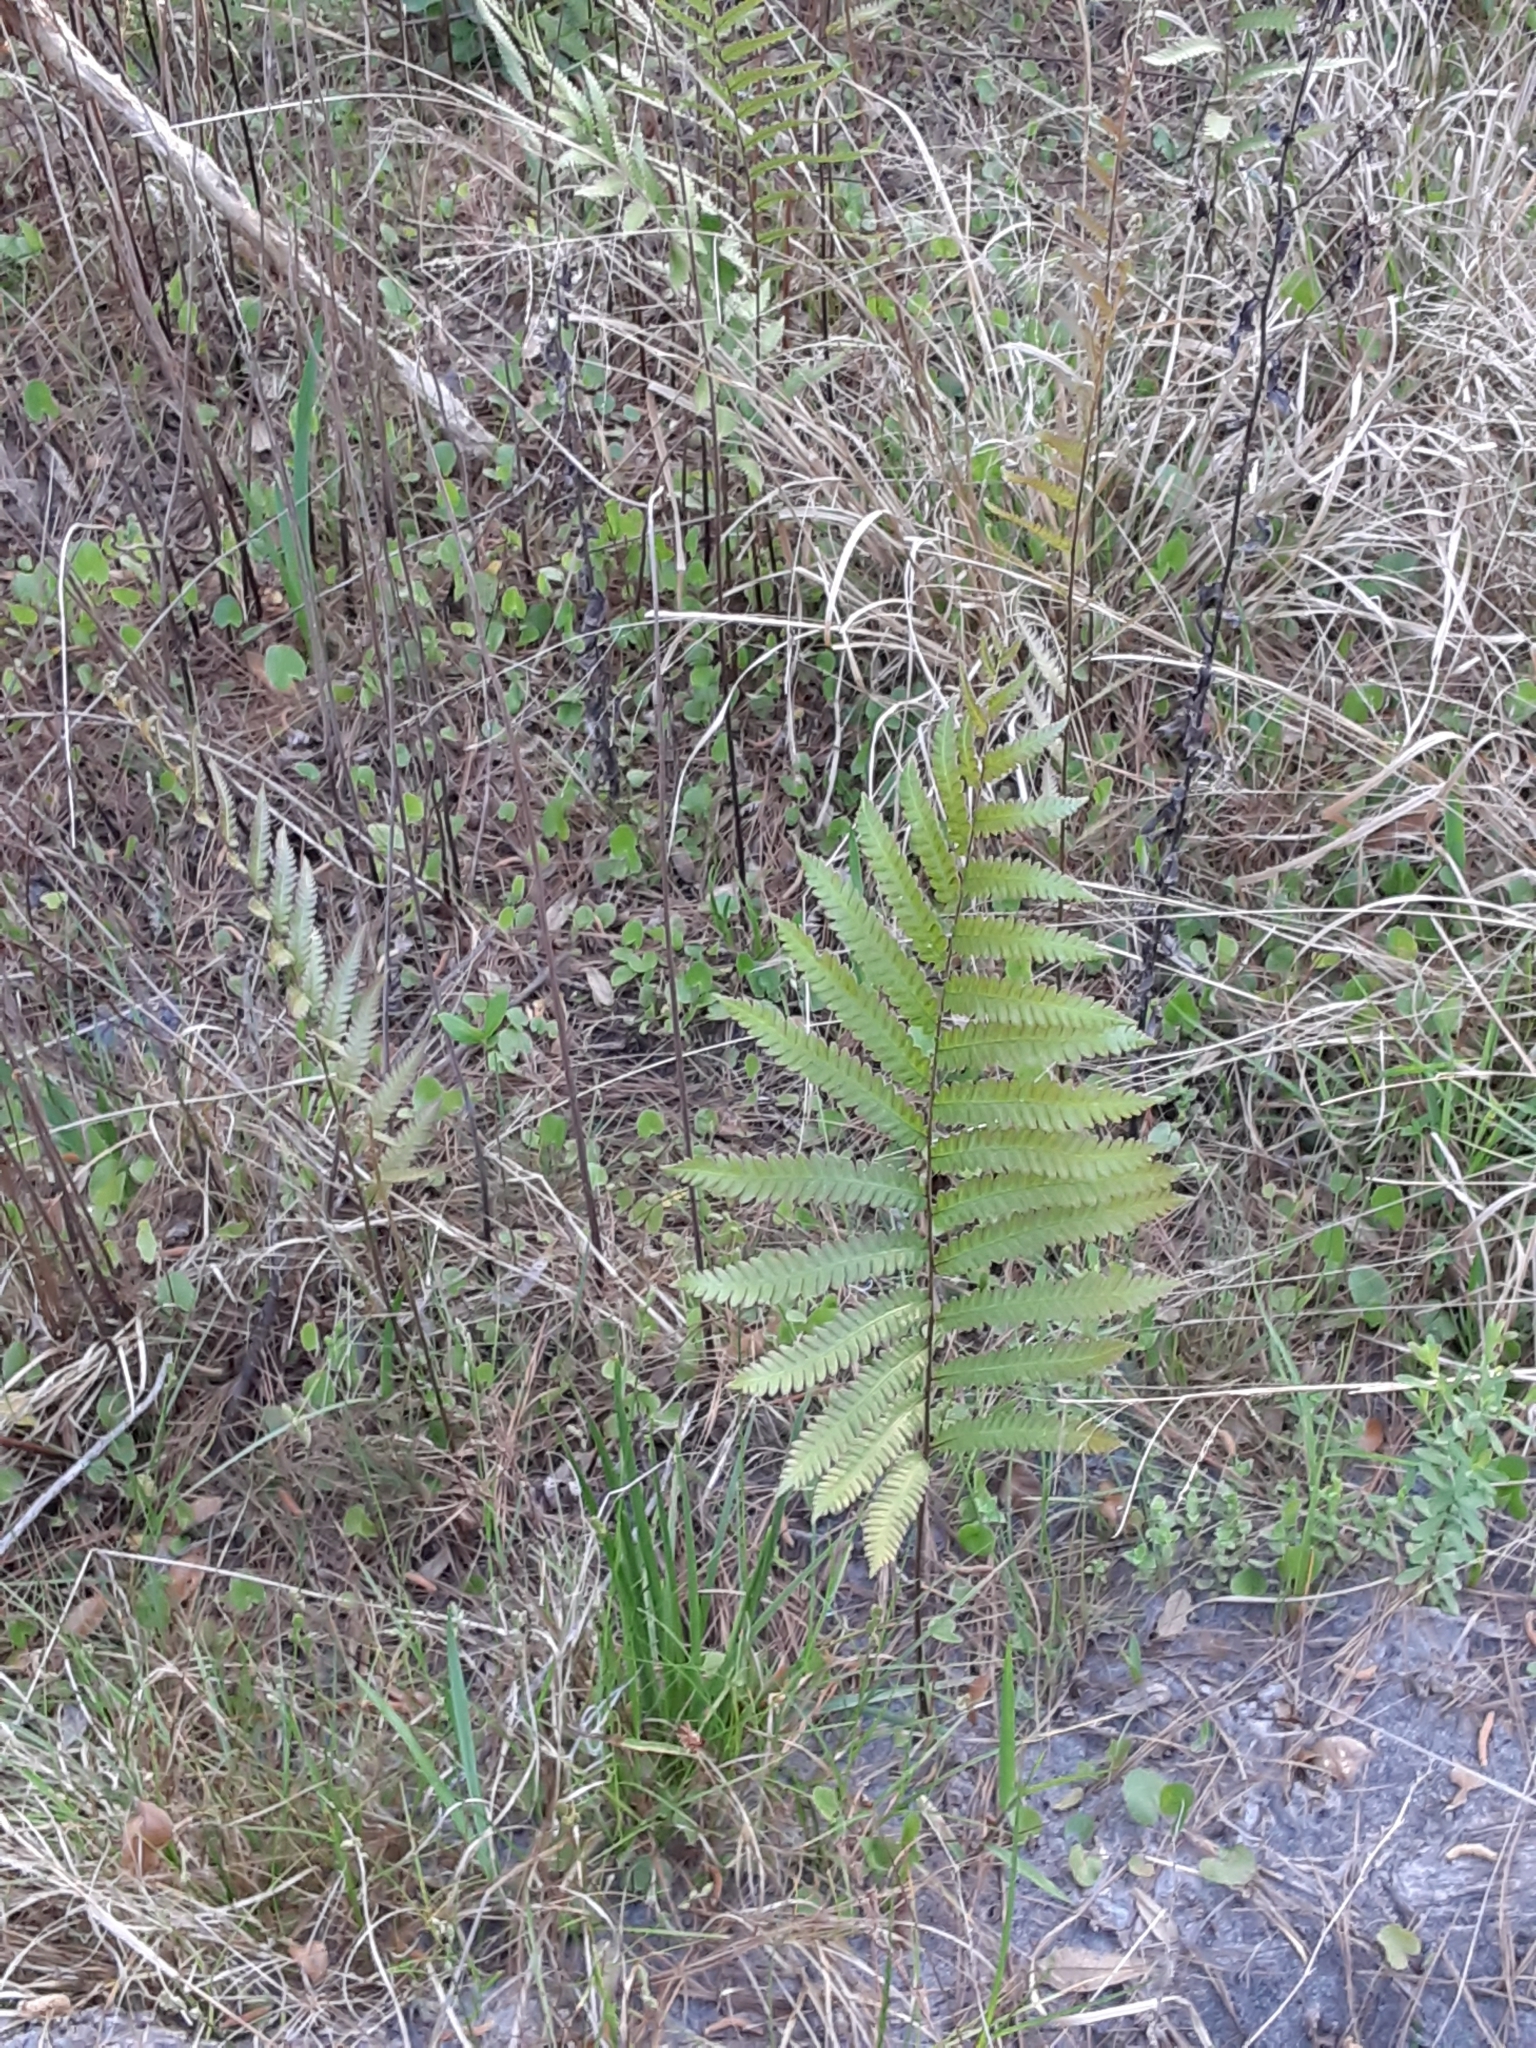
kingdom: Plantae
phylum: Tracheophyta
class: Polypodiopsida
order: Polypodiales
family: Blechnaceae
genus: Anchistea
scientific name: Anchistea virginica
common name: Virginia chain fern
